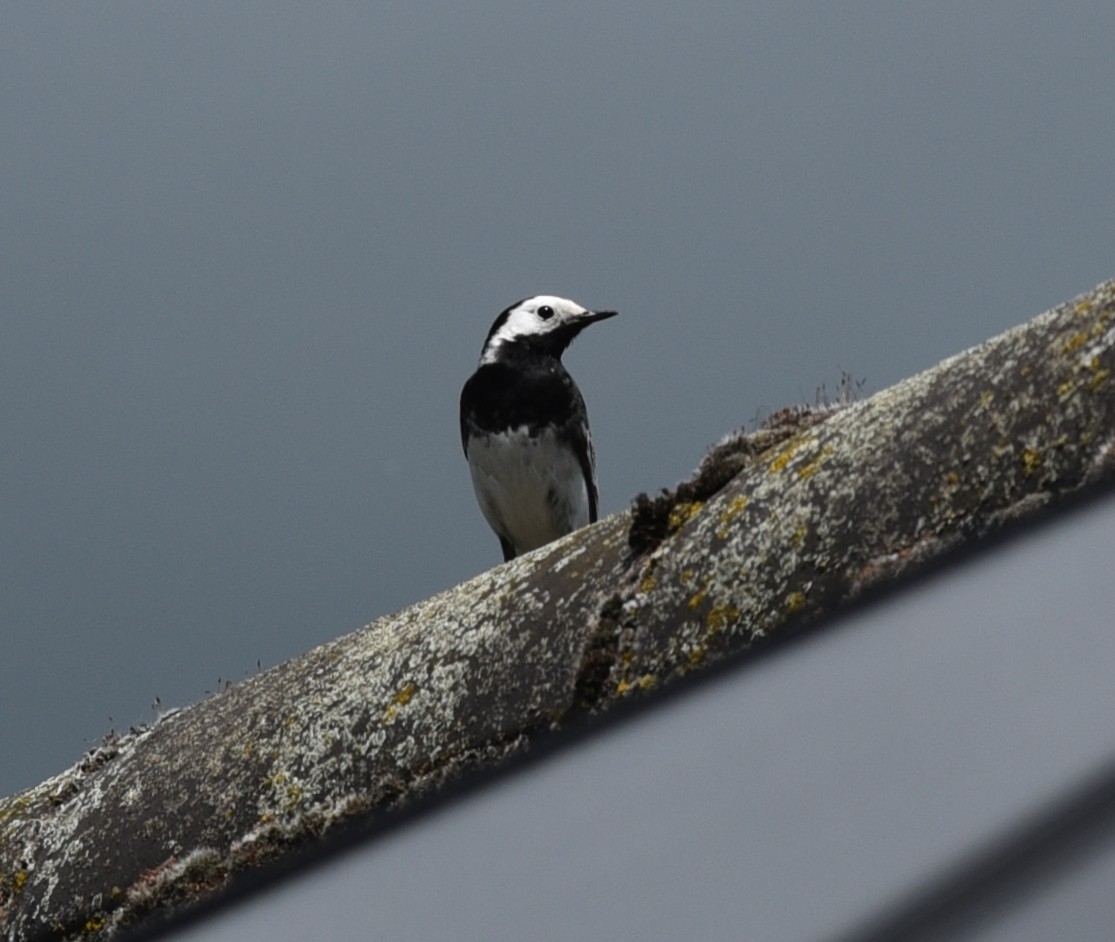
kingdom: Animalia
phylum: Chordata
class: Aves
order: Passeriformes
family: Motacillidae
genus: Motacilla
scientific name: Motacilla alba
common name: White wagtail
